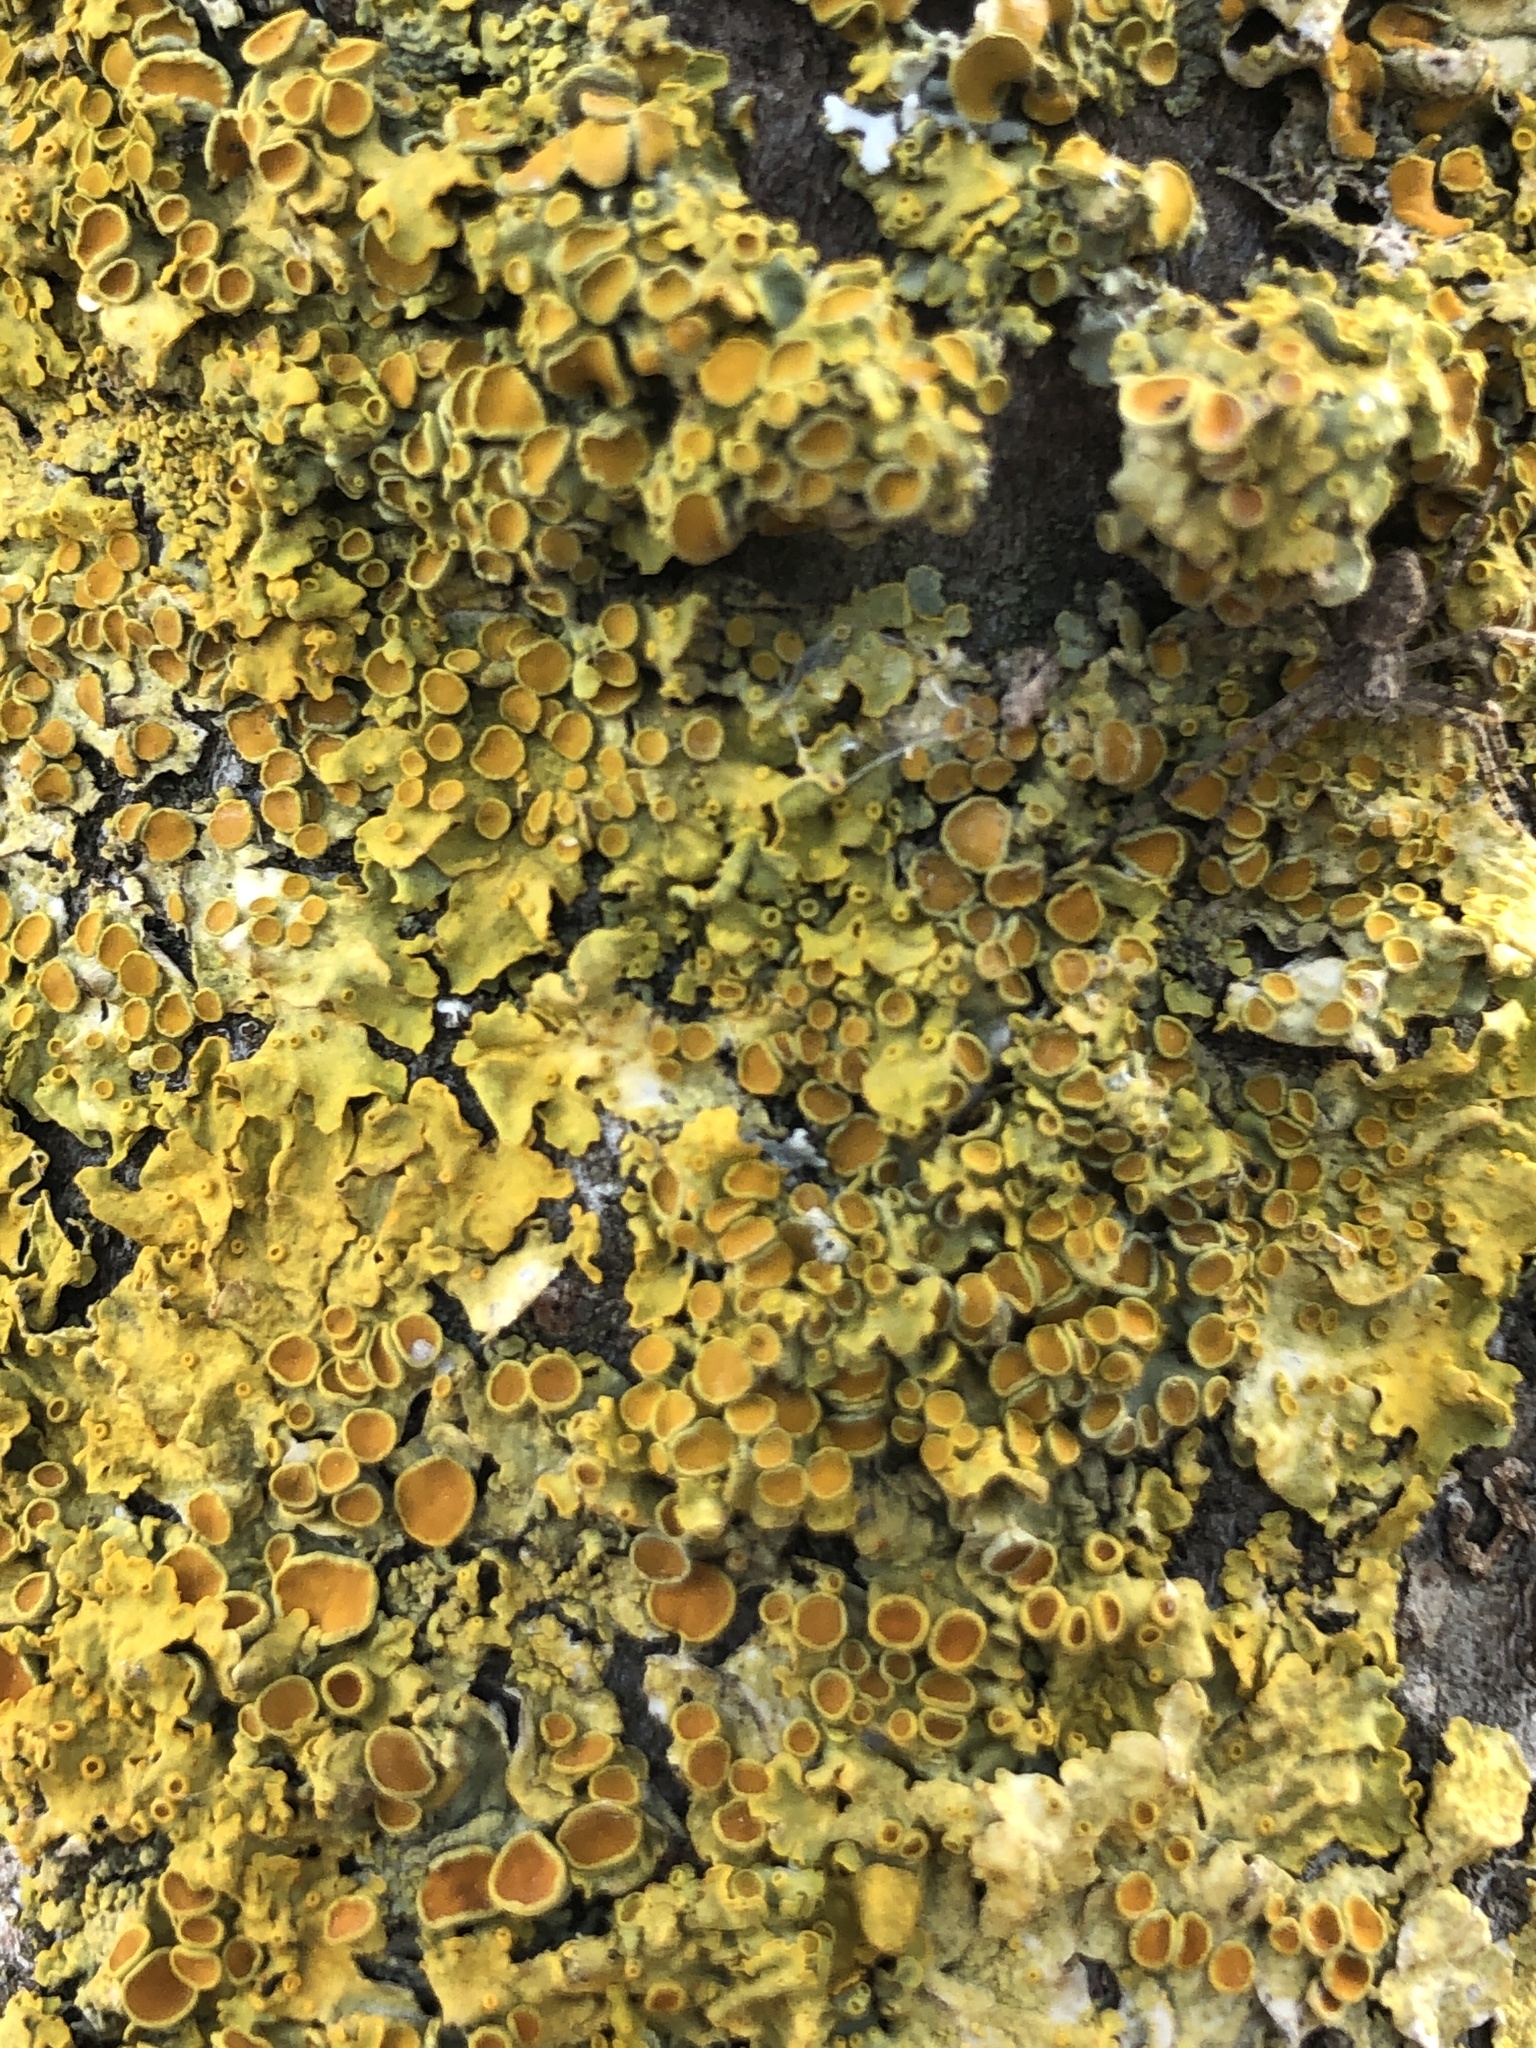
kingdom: Fungi
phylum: Ascomycota
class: Lecanoromycetes
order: Teloschistales
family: Teloschistaceae
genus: Xanthoria
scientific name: Xanthoria parietina
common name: Common orange lichen
